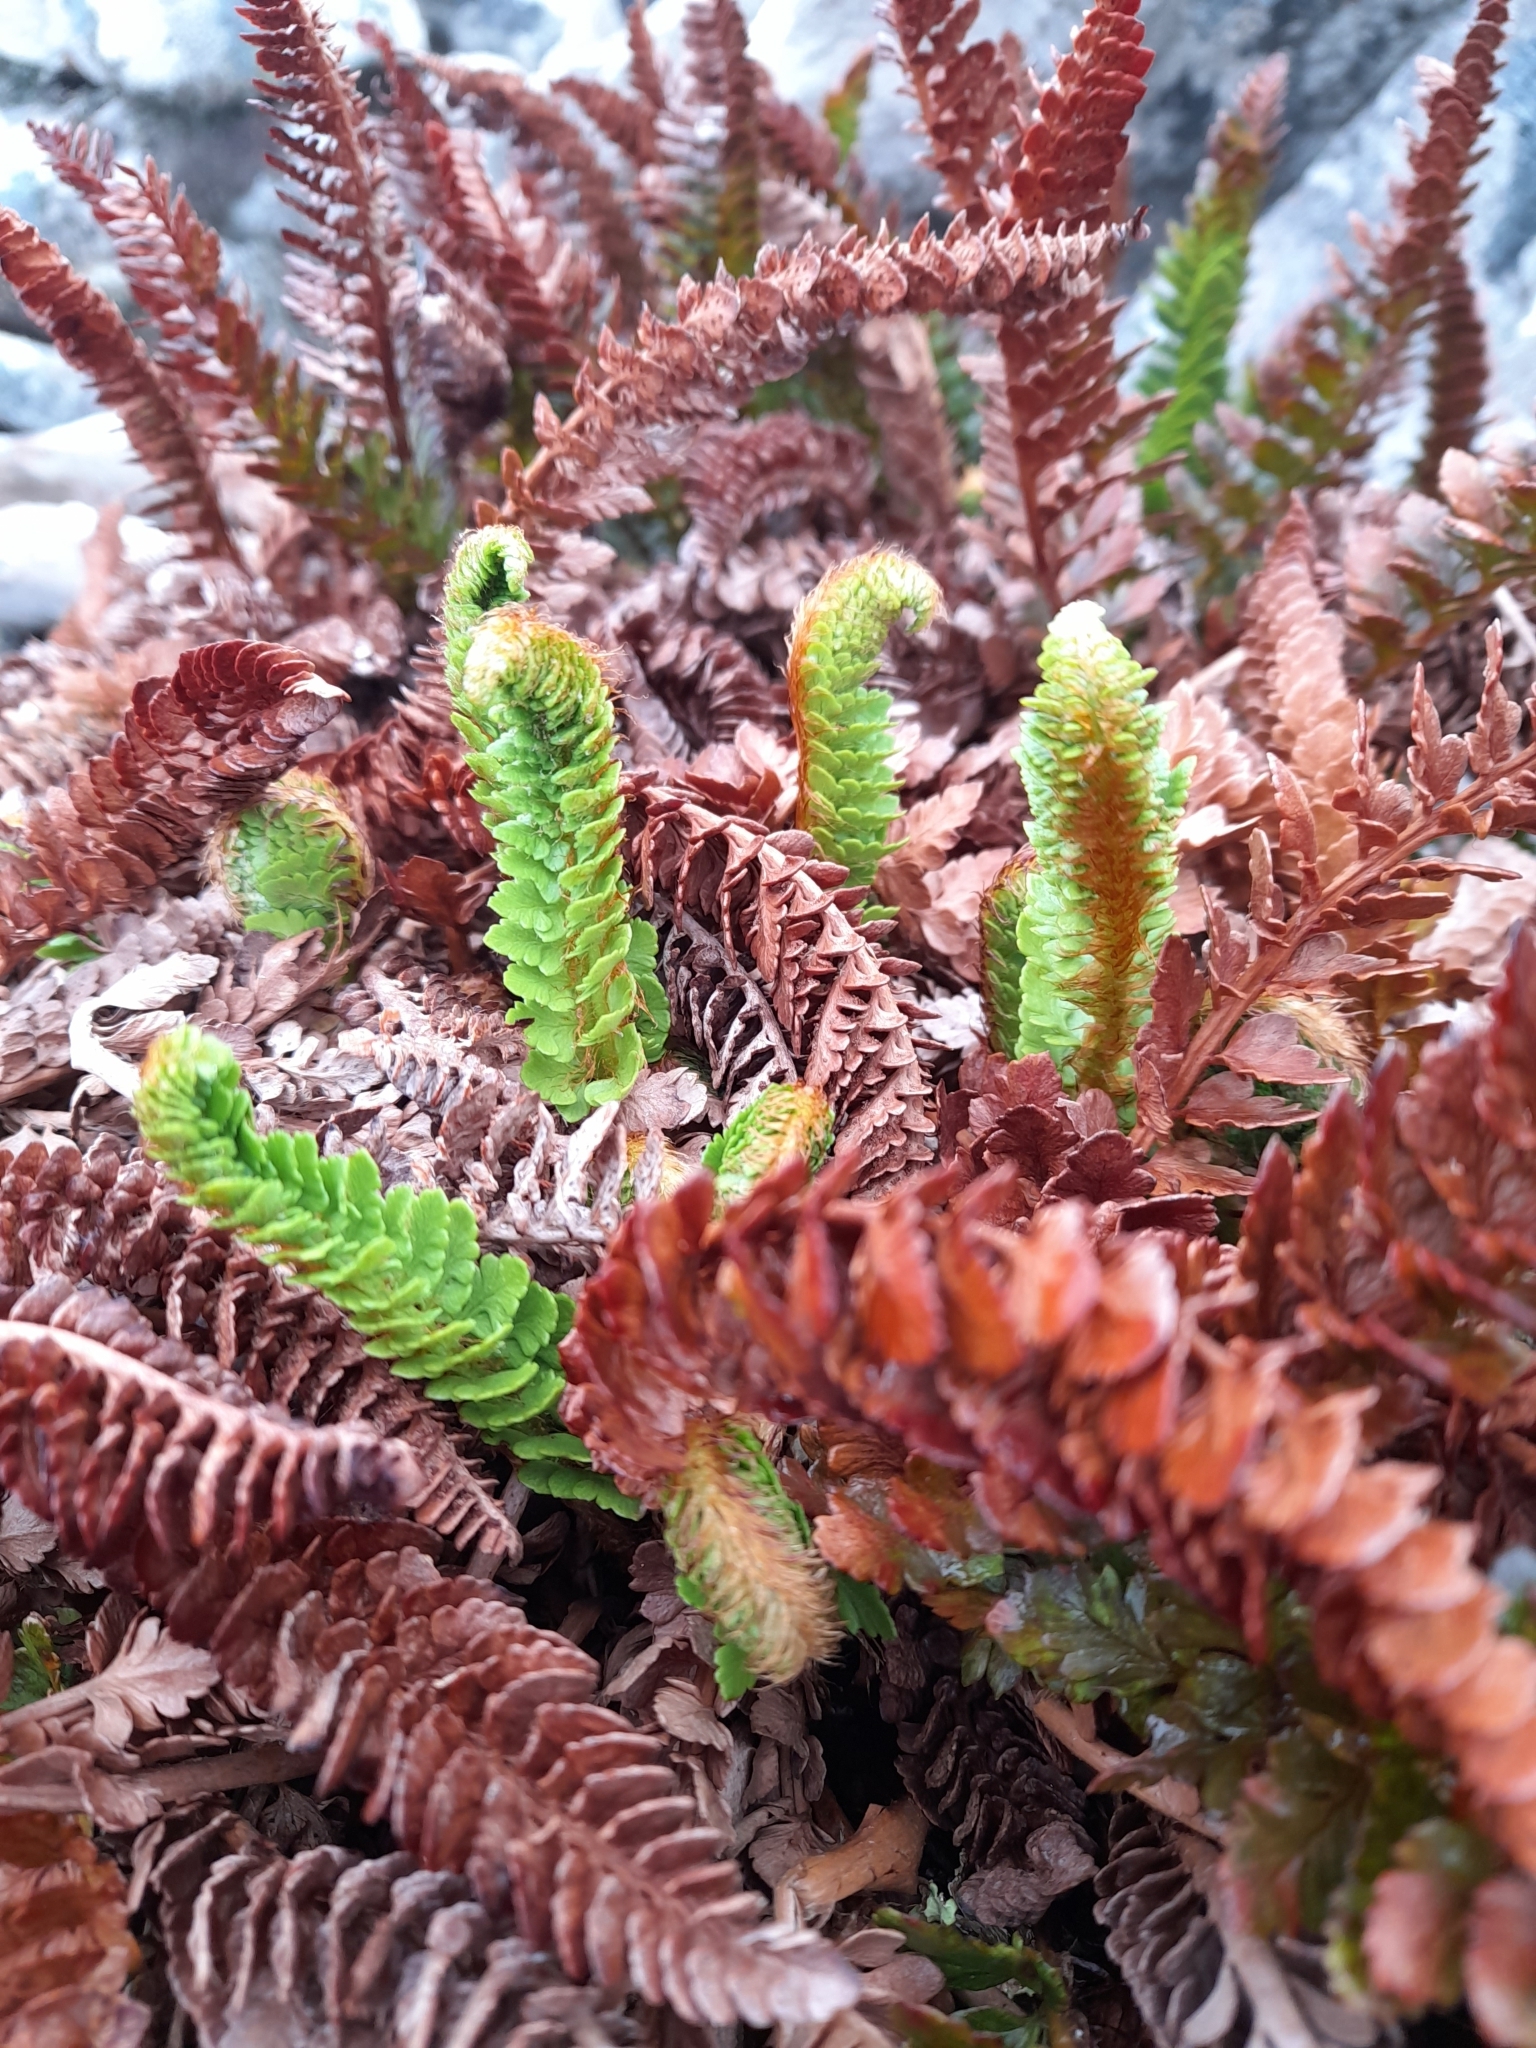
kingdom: Plantae
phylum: Tracheophyta
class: Polypodiopsida
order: Polypodiales
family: Dryopteridaceae
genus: Polystichum
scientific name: Polystichum mohrioides
